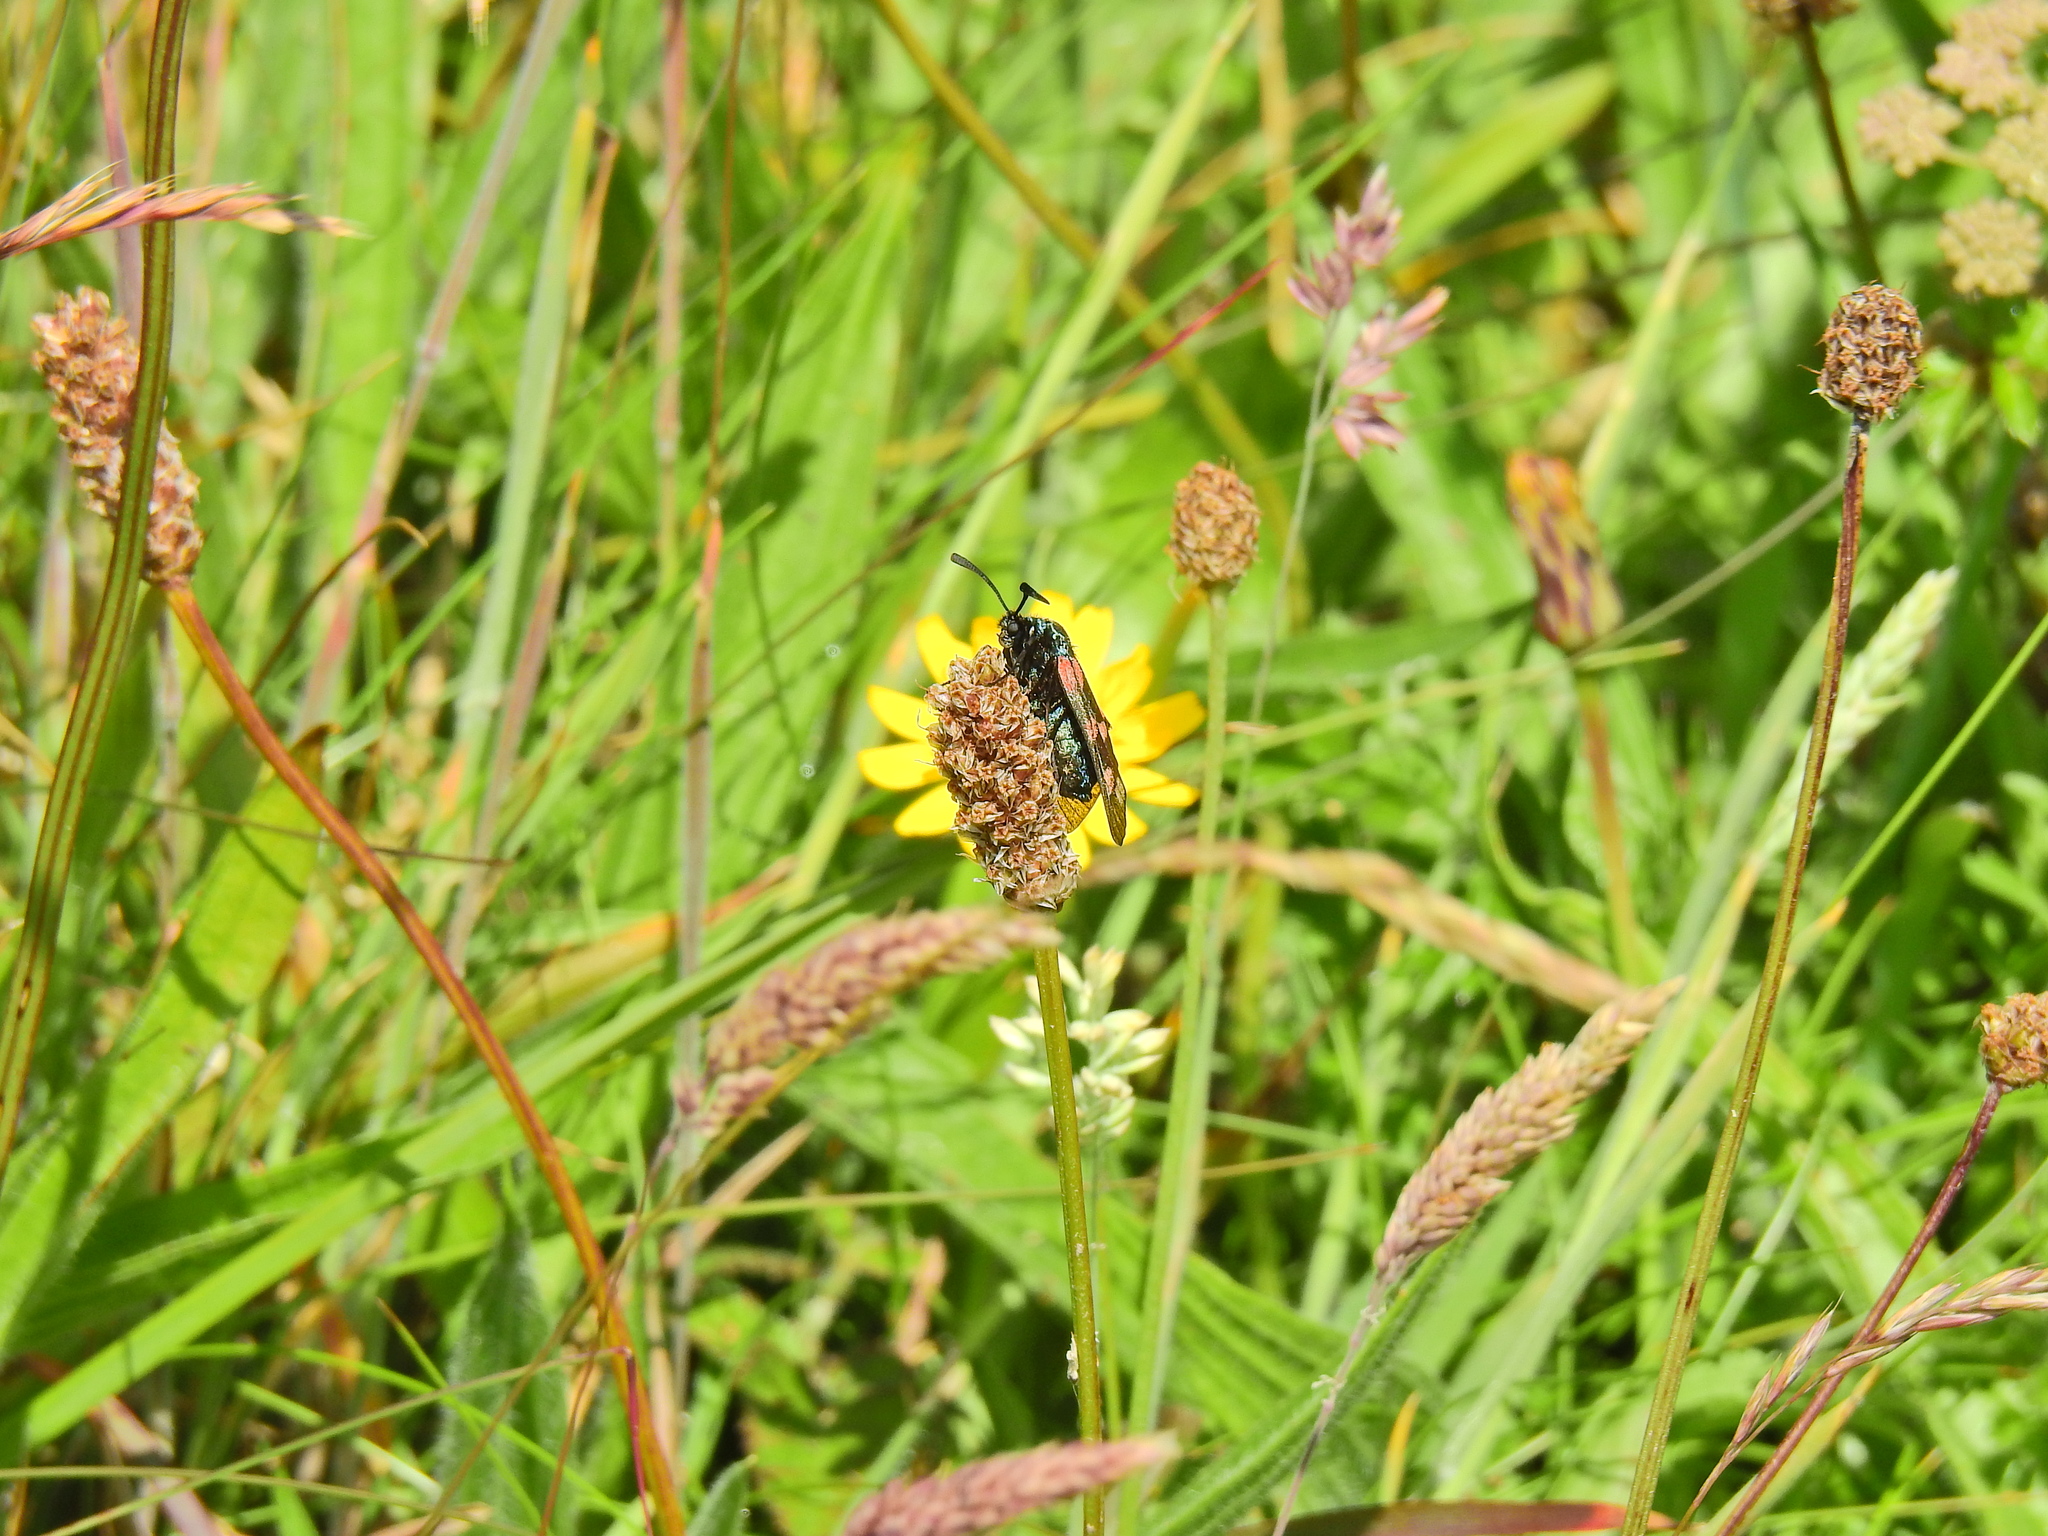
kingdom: Animalia
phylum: Arthropoda
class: Insecta
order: Lepidoptera
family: Zygaenidae
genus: Zygaena
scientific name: Zygaena filipendulae
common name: Six-spot burnet
